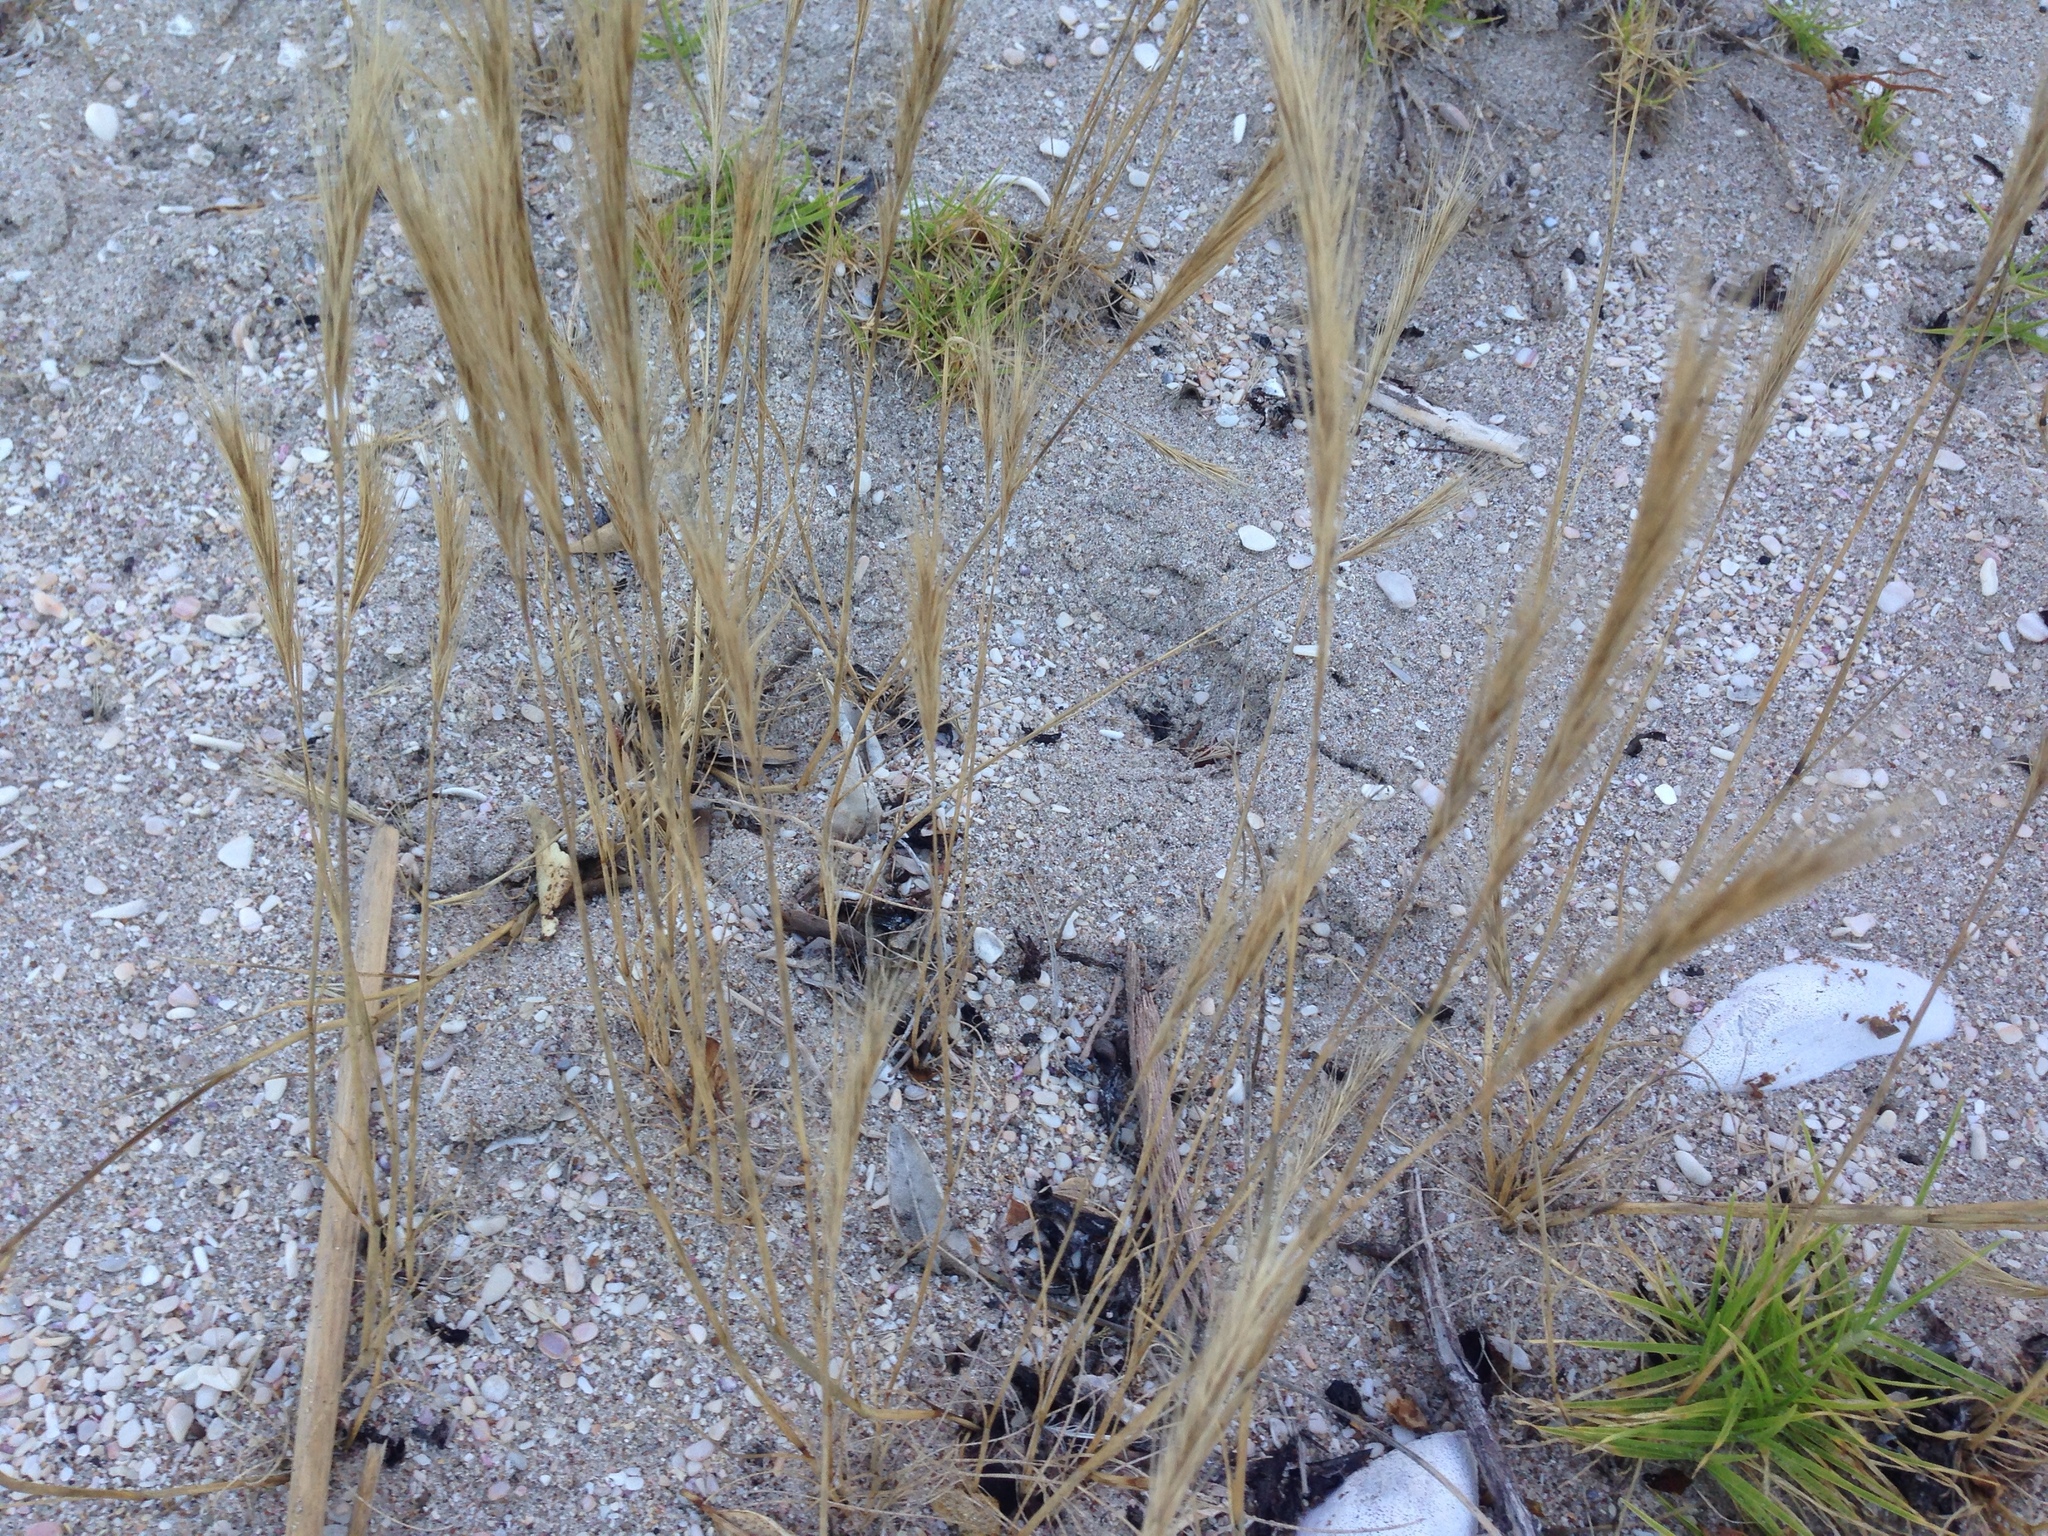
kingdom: Plantae
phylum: Tracheophyta
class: Liliopsida
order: Poales
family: Poaceae
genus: Hordeum
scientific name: Hordeum murinum
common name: Wall barley
